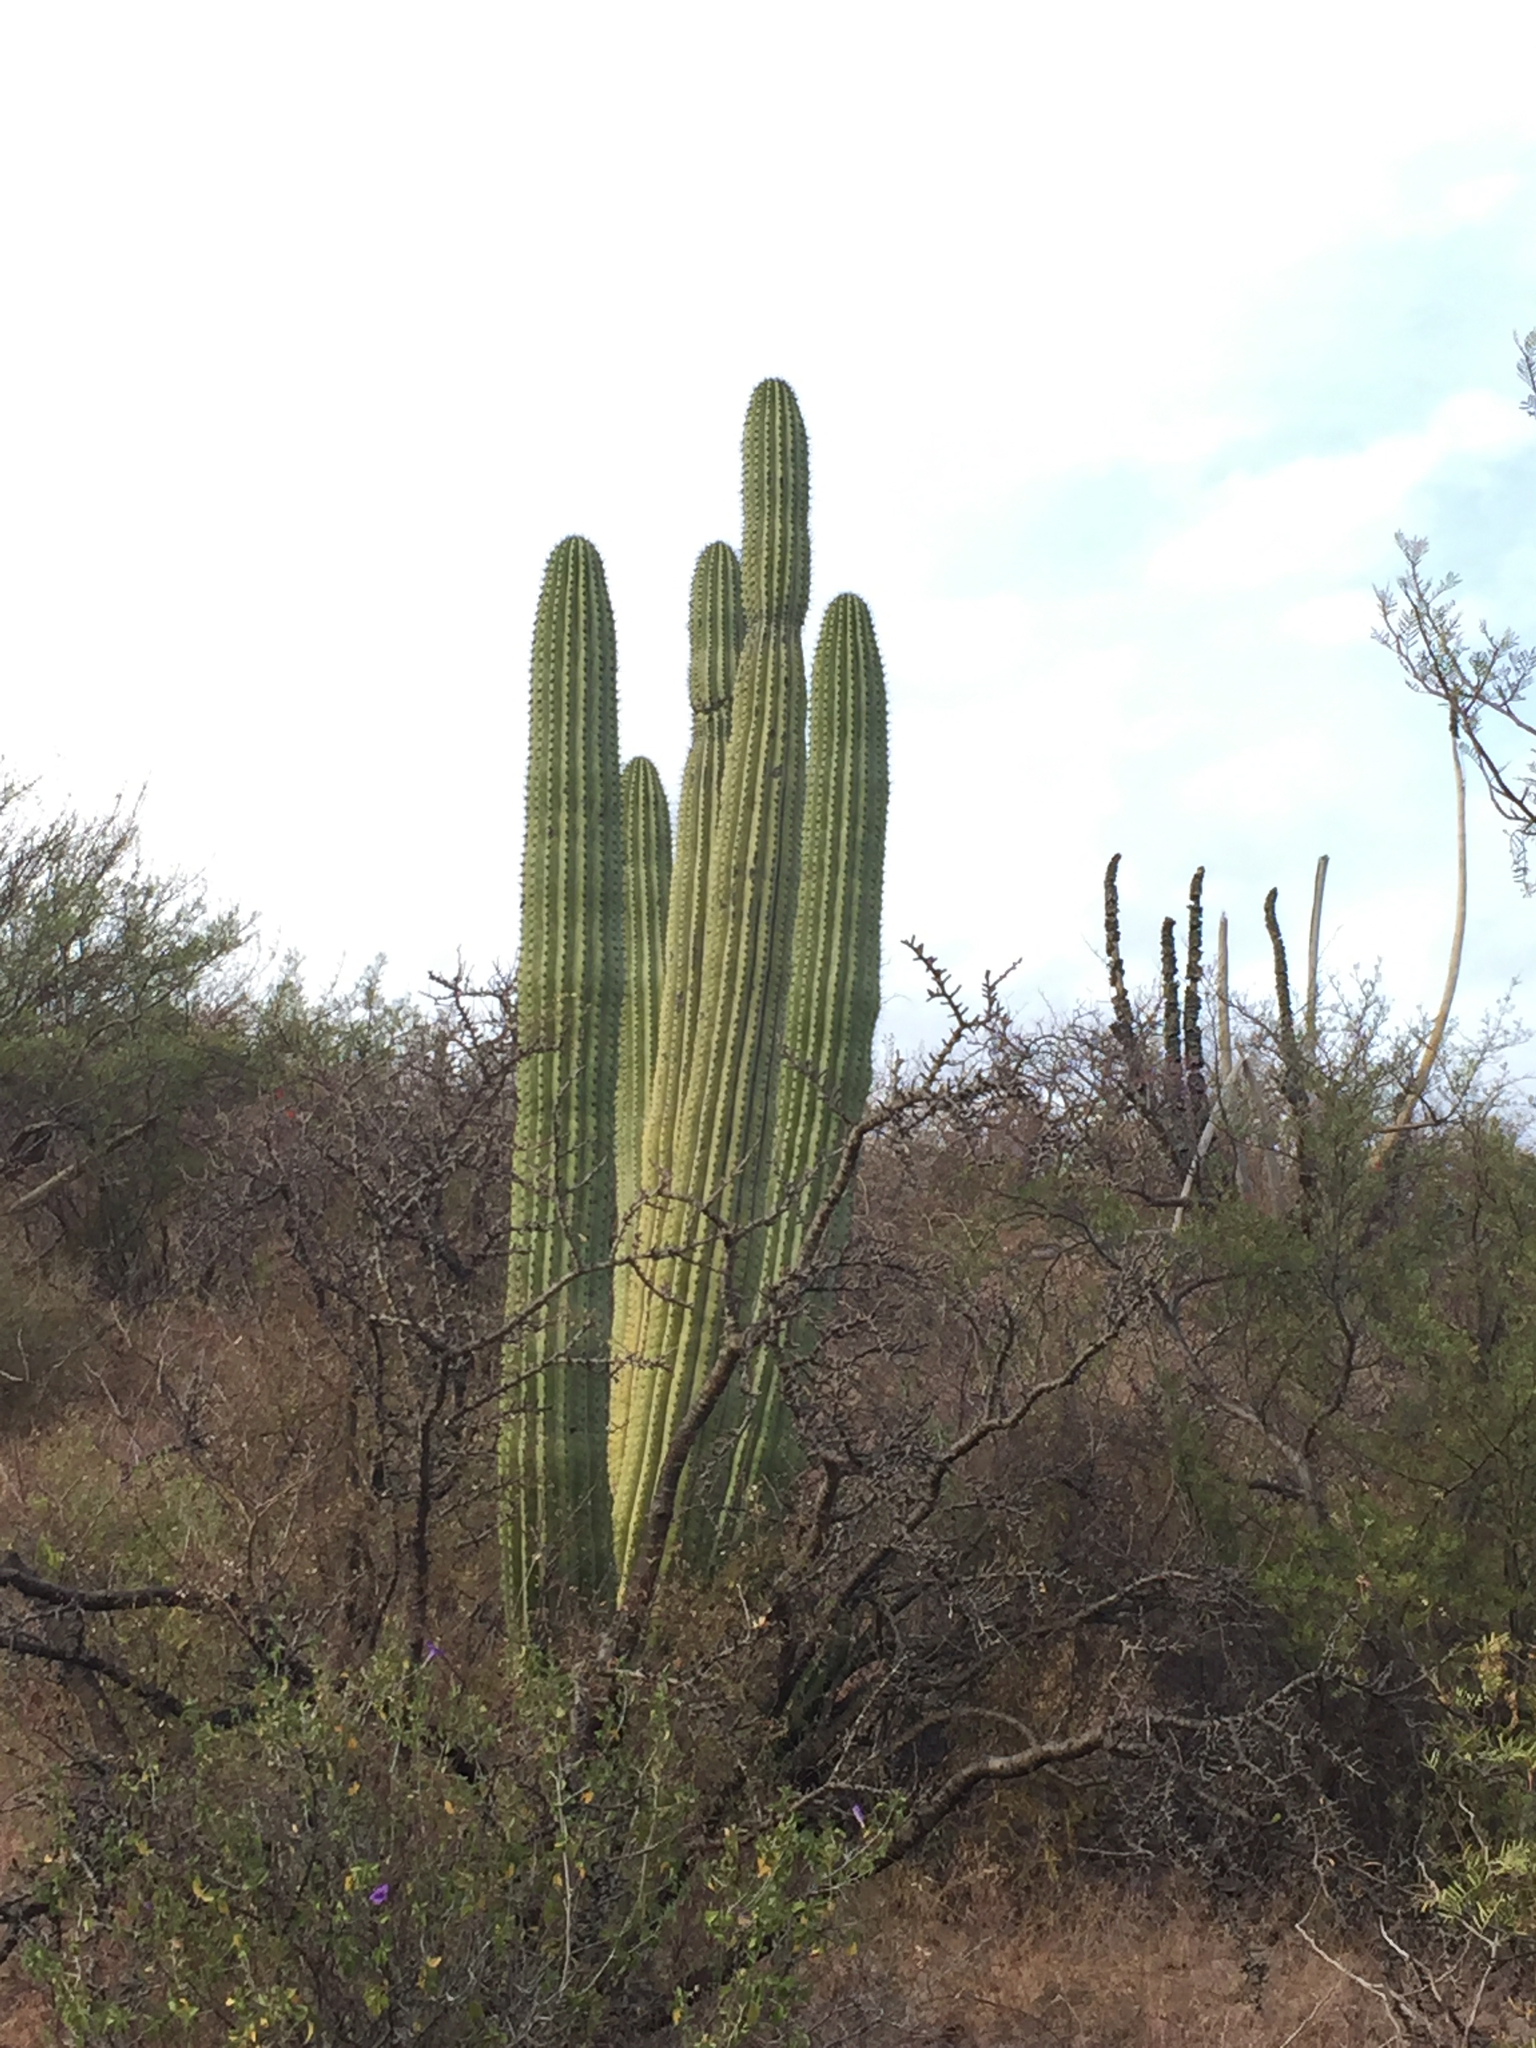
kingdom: Plantae
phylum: Tracheophyta
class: Magnoliopsida
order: Caryophyllales
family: Cactaceae
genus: Stenocereus
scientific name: Stenocereus thurberi
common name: Organ pipe cactus
